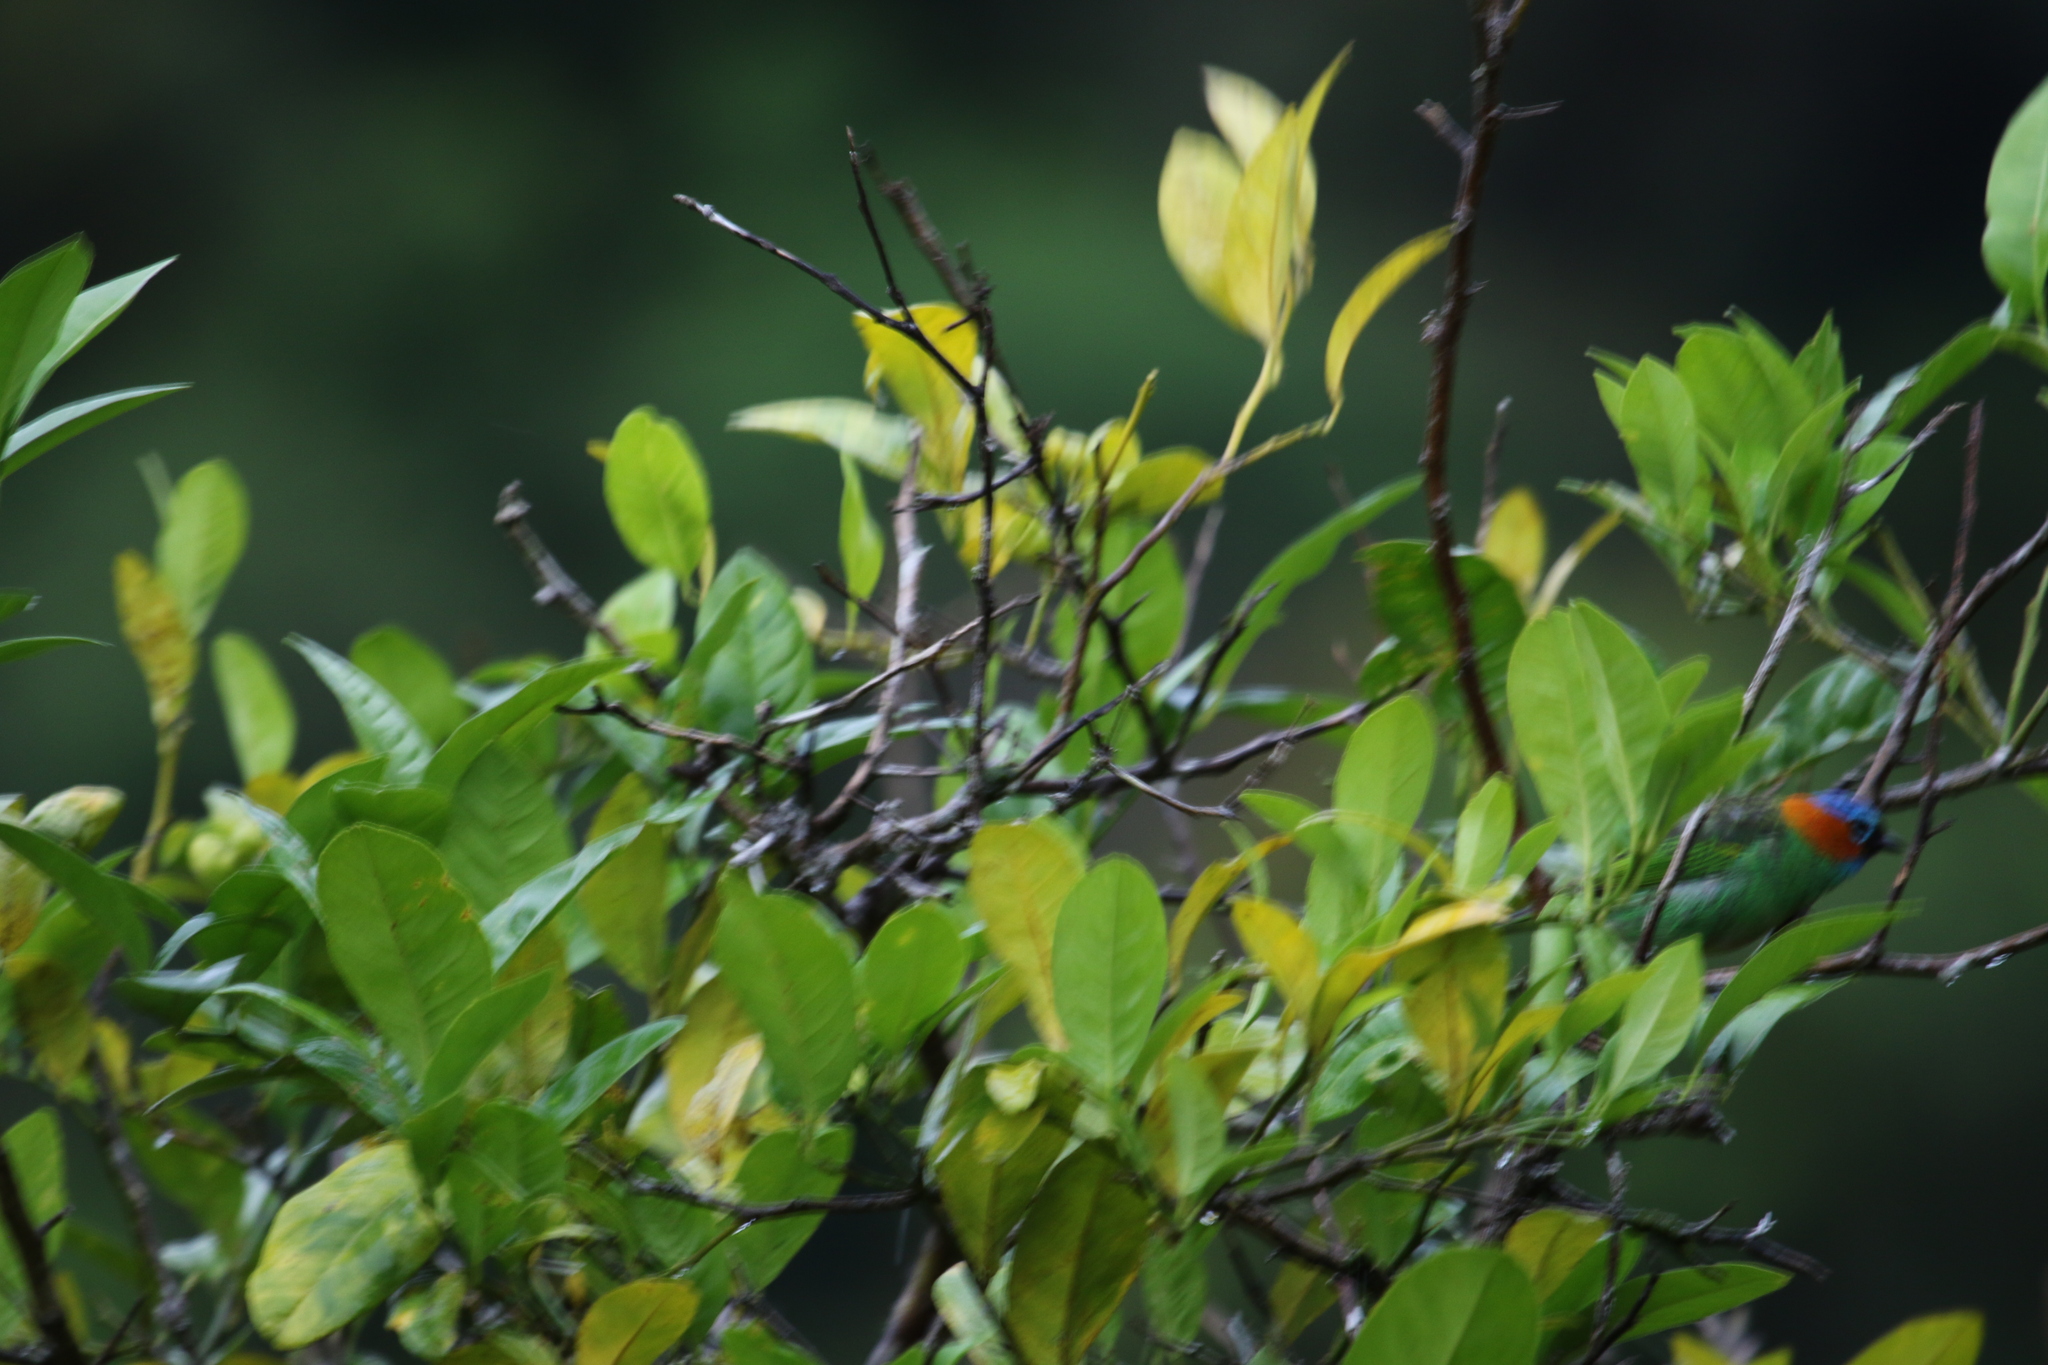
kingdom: Animalia
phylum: Chordata
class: Aves
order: Passeriformes
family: Thraupidae
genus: Tangara
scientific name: Tangara cyanocephala
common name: Red-necked tanager
